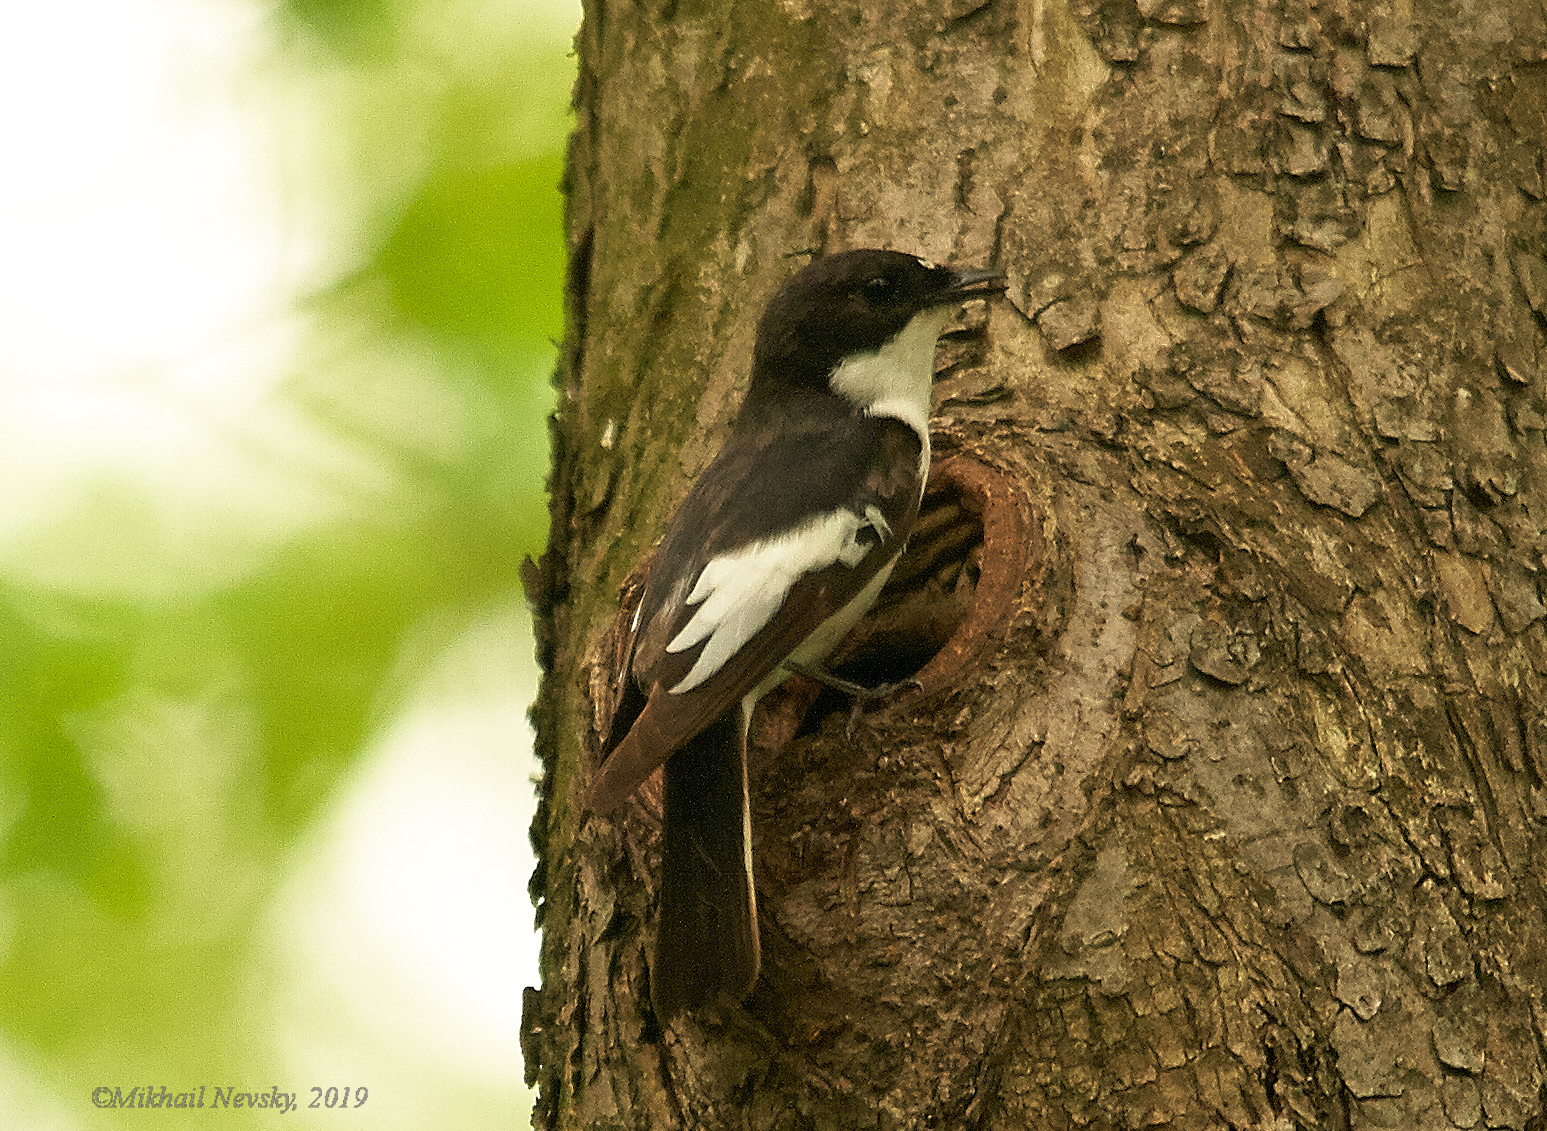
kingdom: Animalia
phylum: Chordata
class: Aves
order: Passeriformes
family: Muscicapidae
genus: Ficedula
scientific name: Ficedula hypoleuca
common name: European pied flycatcher
